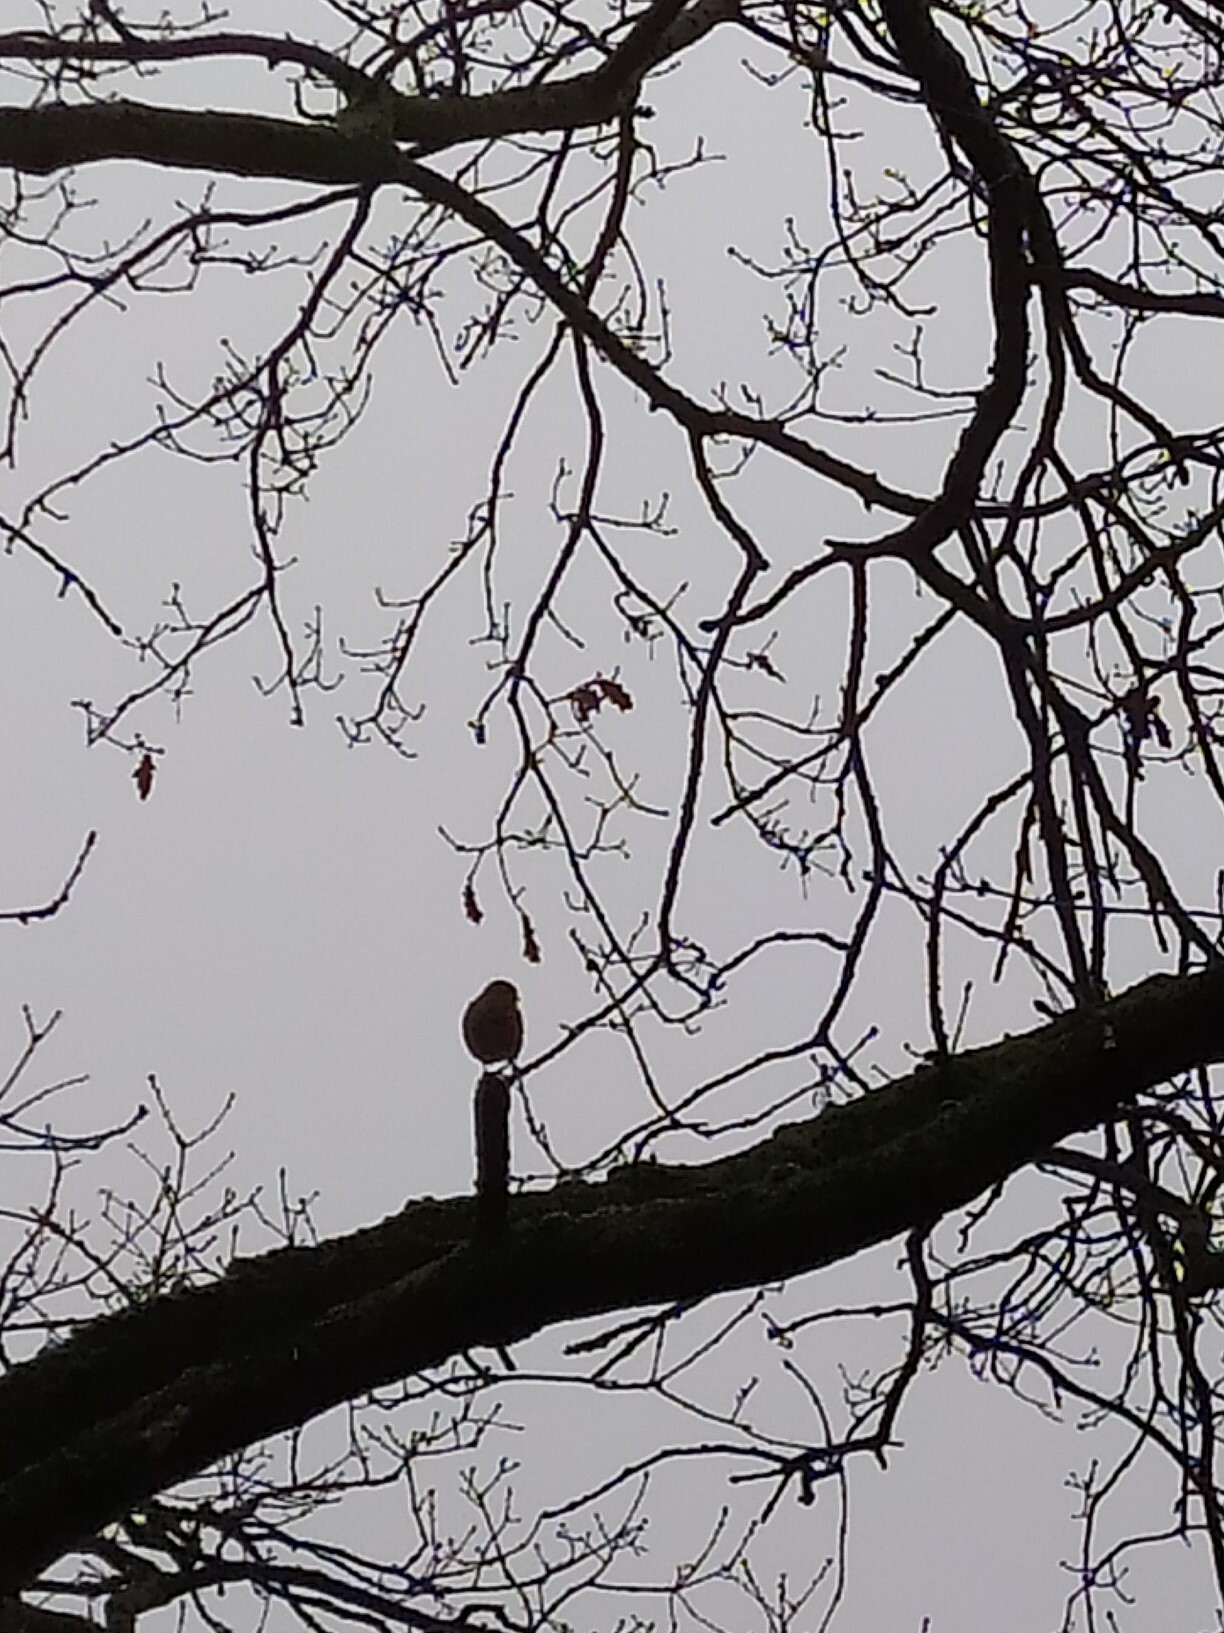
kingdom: Animalia
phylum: Chordata
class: Aves
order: Passeriformes
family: Fringillidae
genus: Fringilla
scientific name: Fringilla coelebs
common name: Common chaffinch
